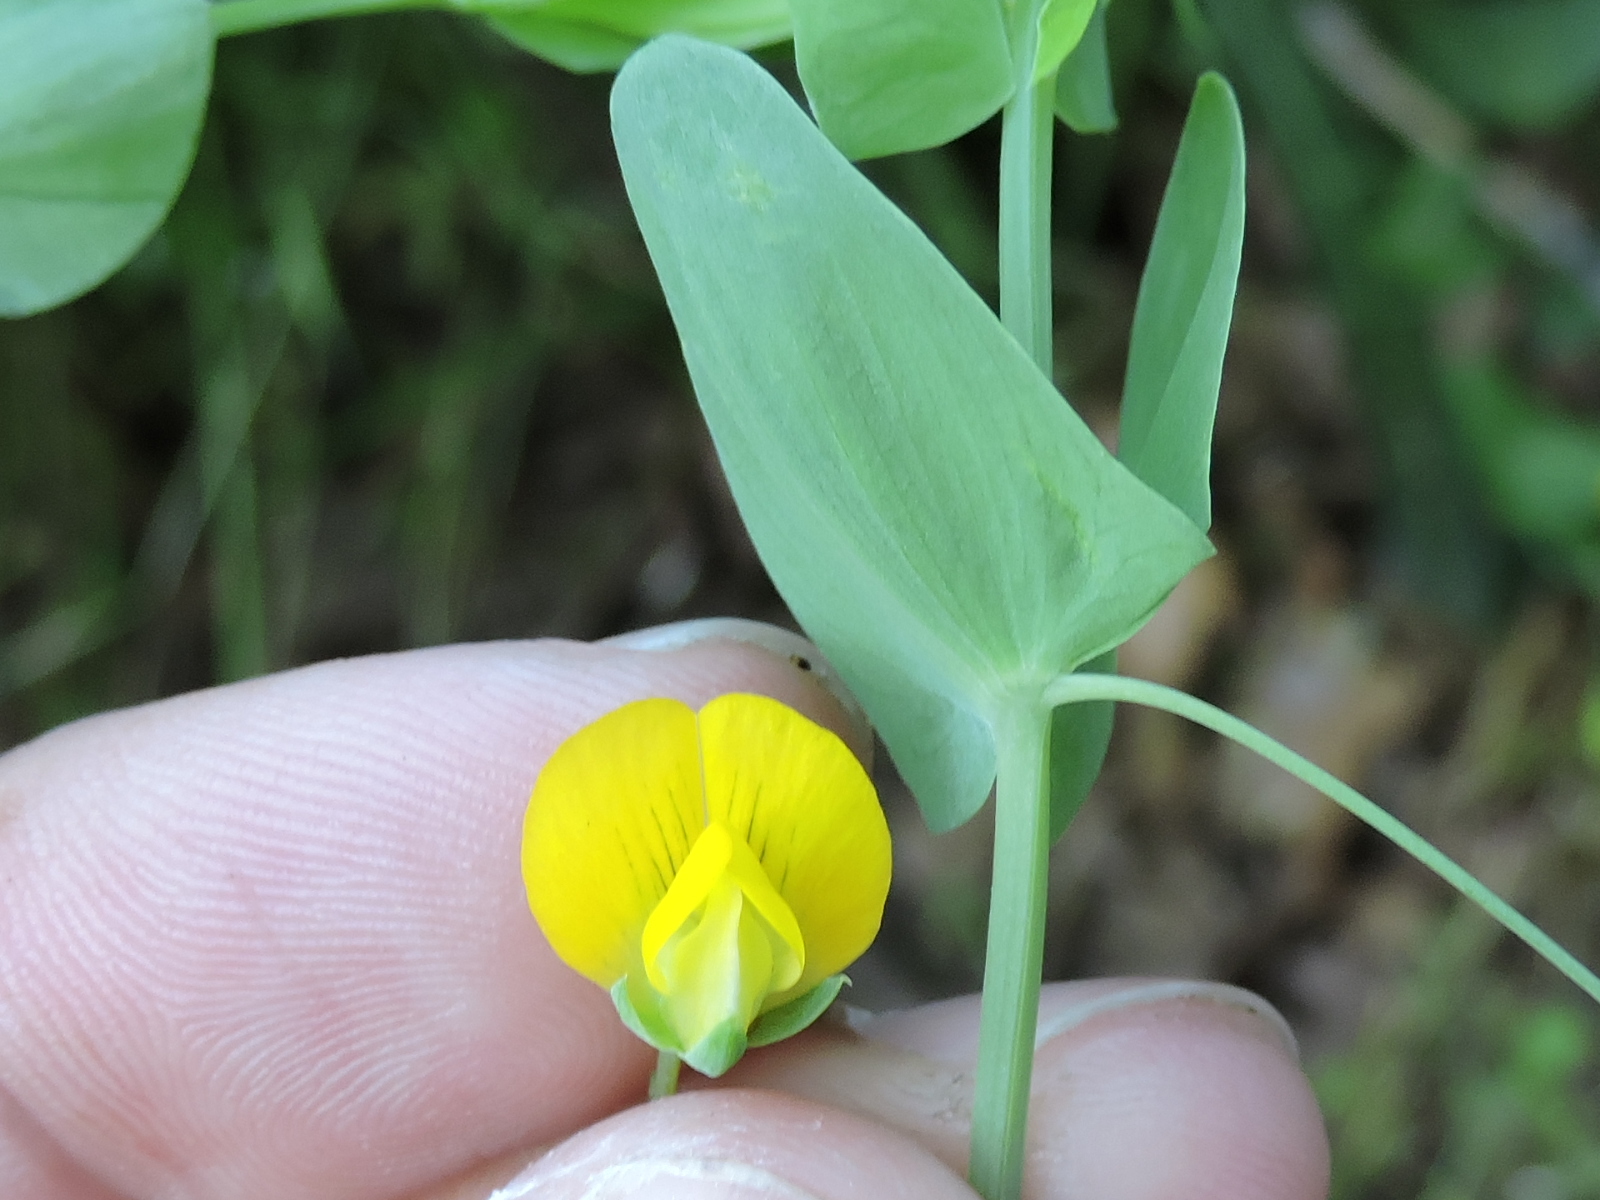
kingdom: Plantae
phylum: Tracheophyta
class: Magnoliopsida
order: Fabales
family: Fabaceae
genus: Lathyrus
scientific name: Lathyrus aphaca
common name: Yellow vetchling
